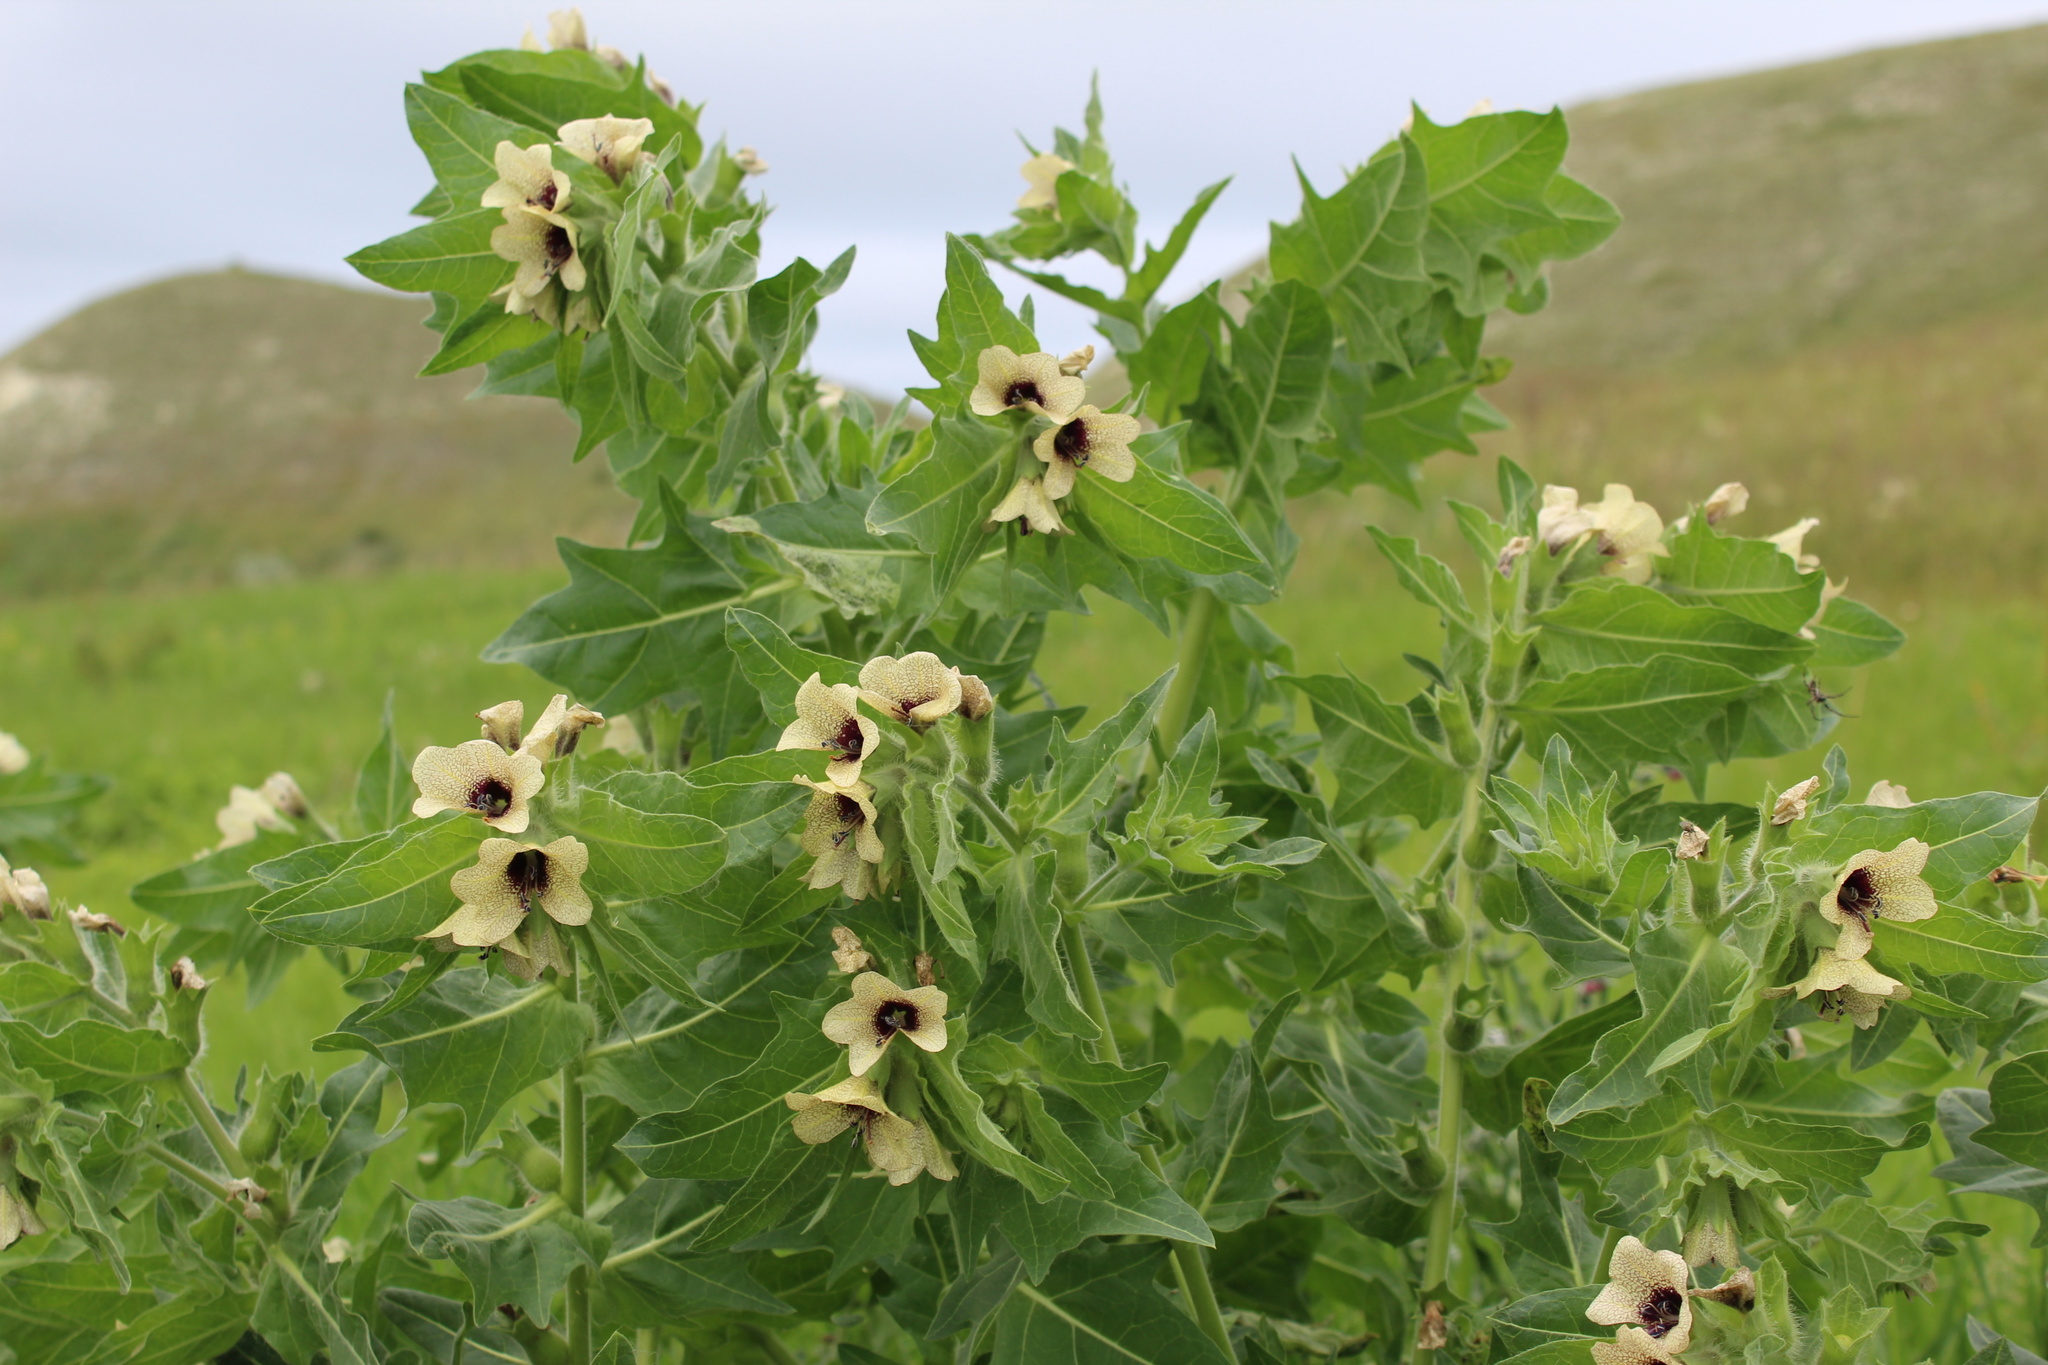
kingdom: Plantae
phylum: Tracheophyta
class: Magnoliopsida
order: Solanales
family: Solanaceae
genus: Hyoscyamus
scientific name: Hyoscyamus niger
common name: Henbane
